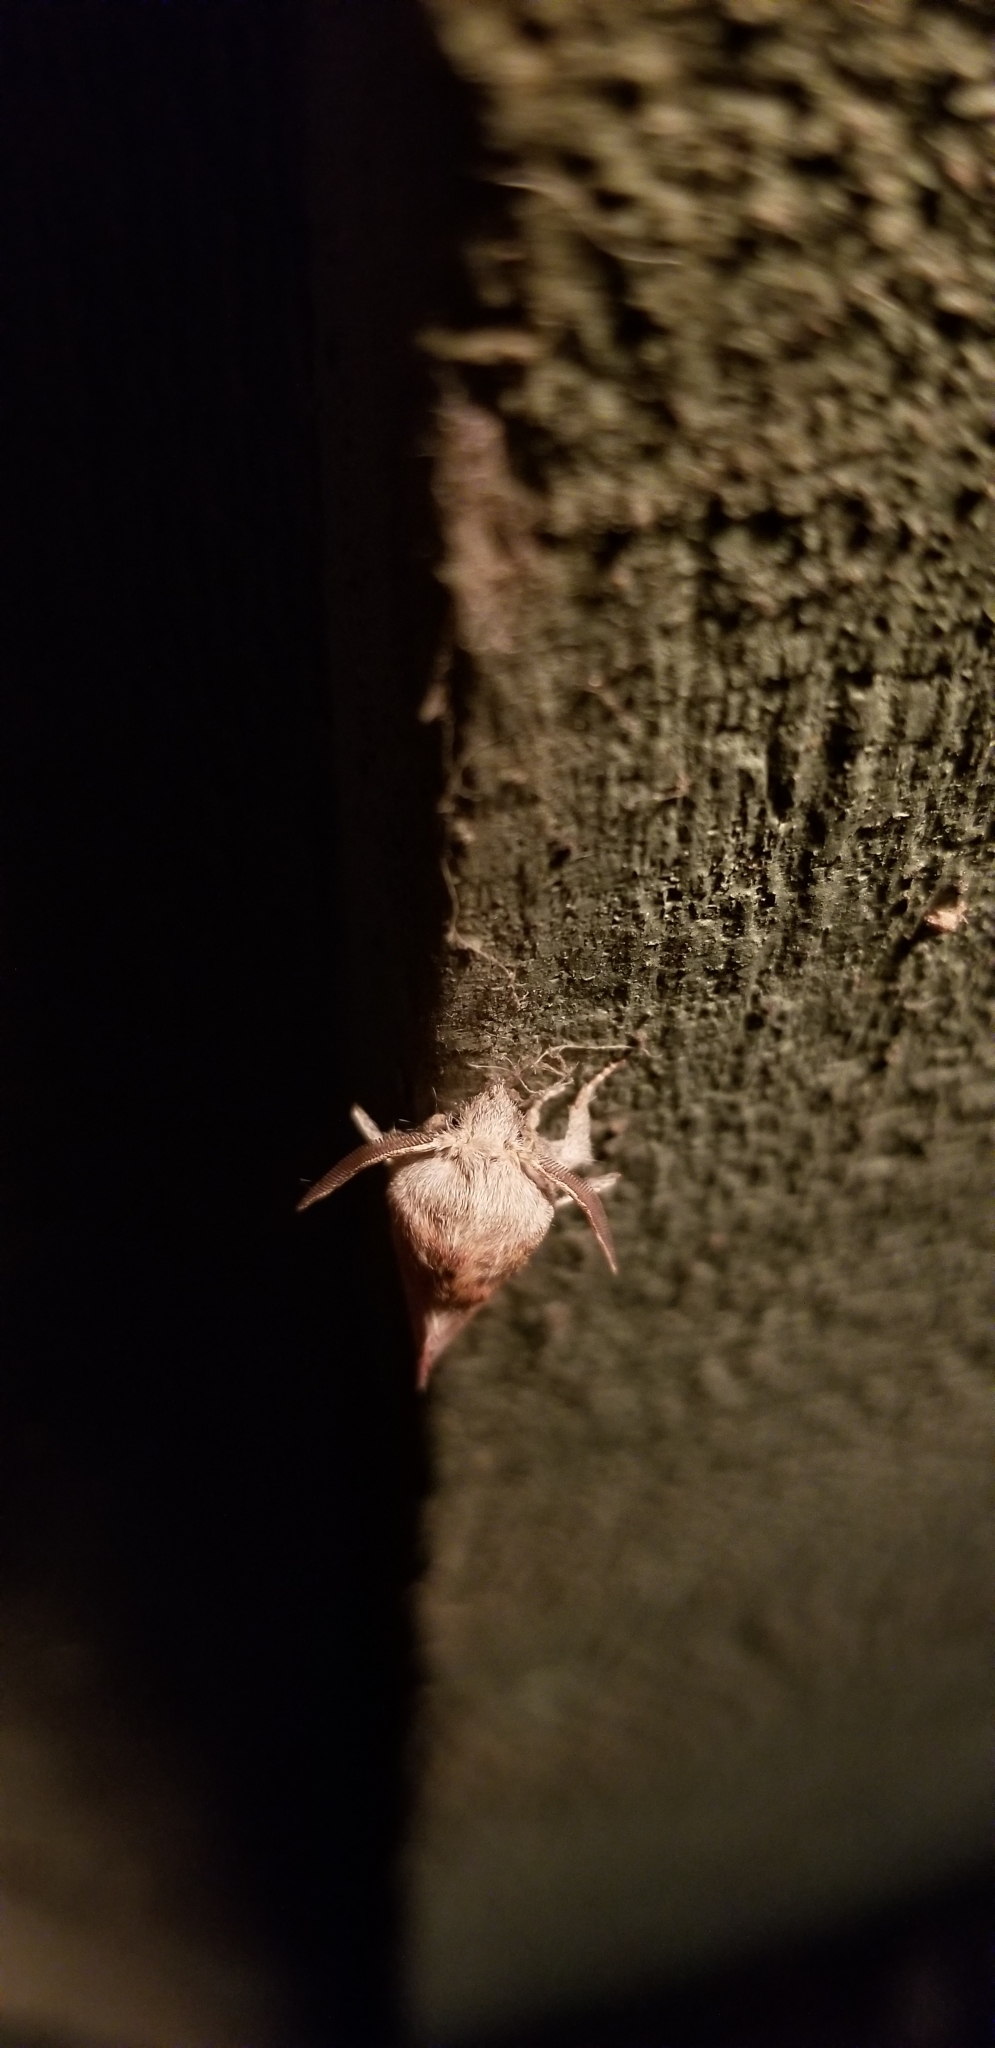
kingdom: Animalia
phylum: Arthropoda
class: Insecta
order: Lepidoptera
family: Lasiocampidae
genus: Phyllodesma
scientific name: Phyllodesma americana
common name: American lappet moth
